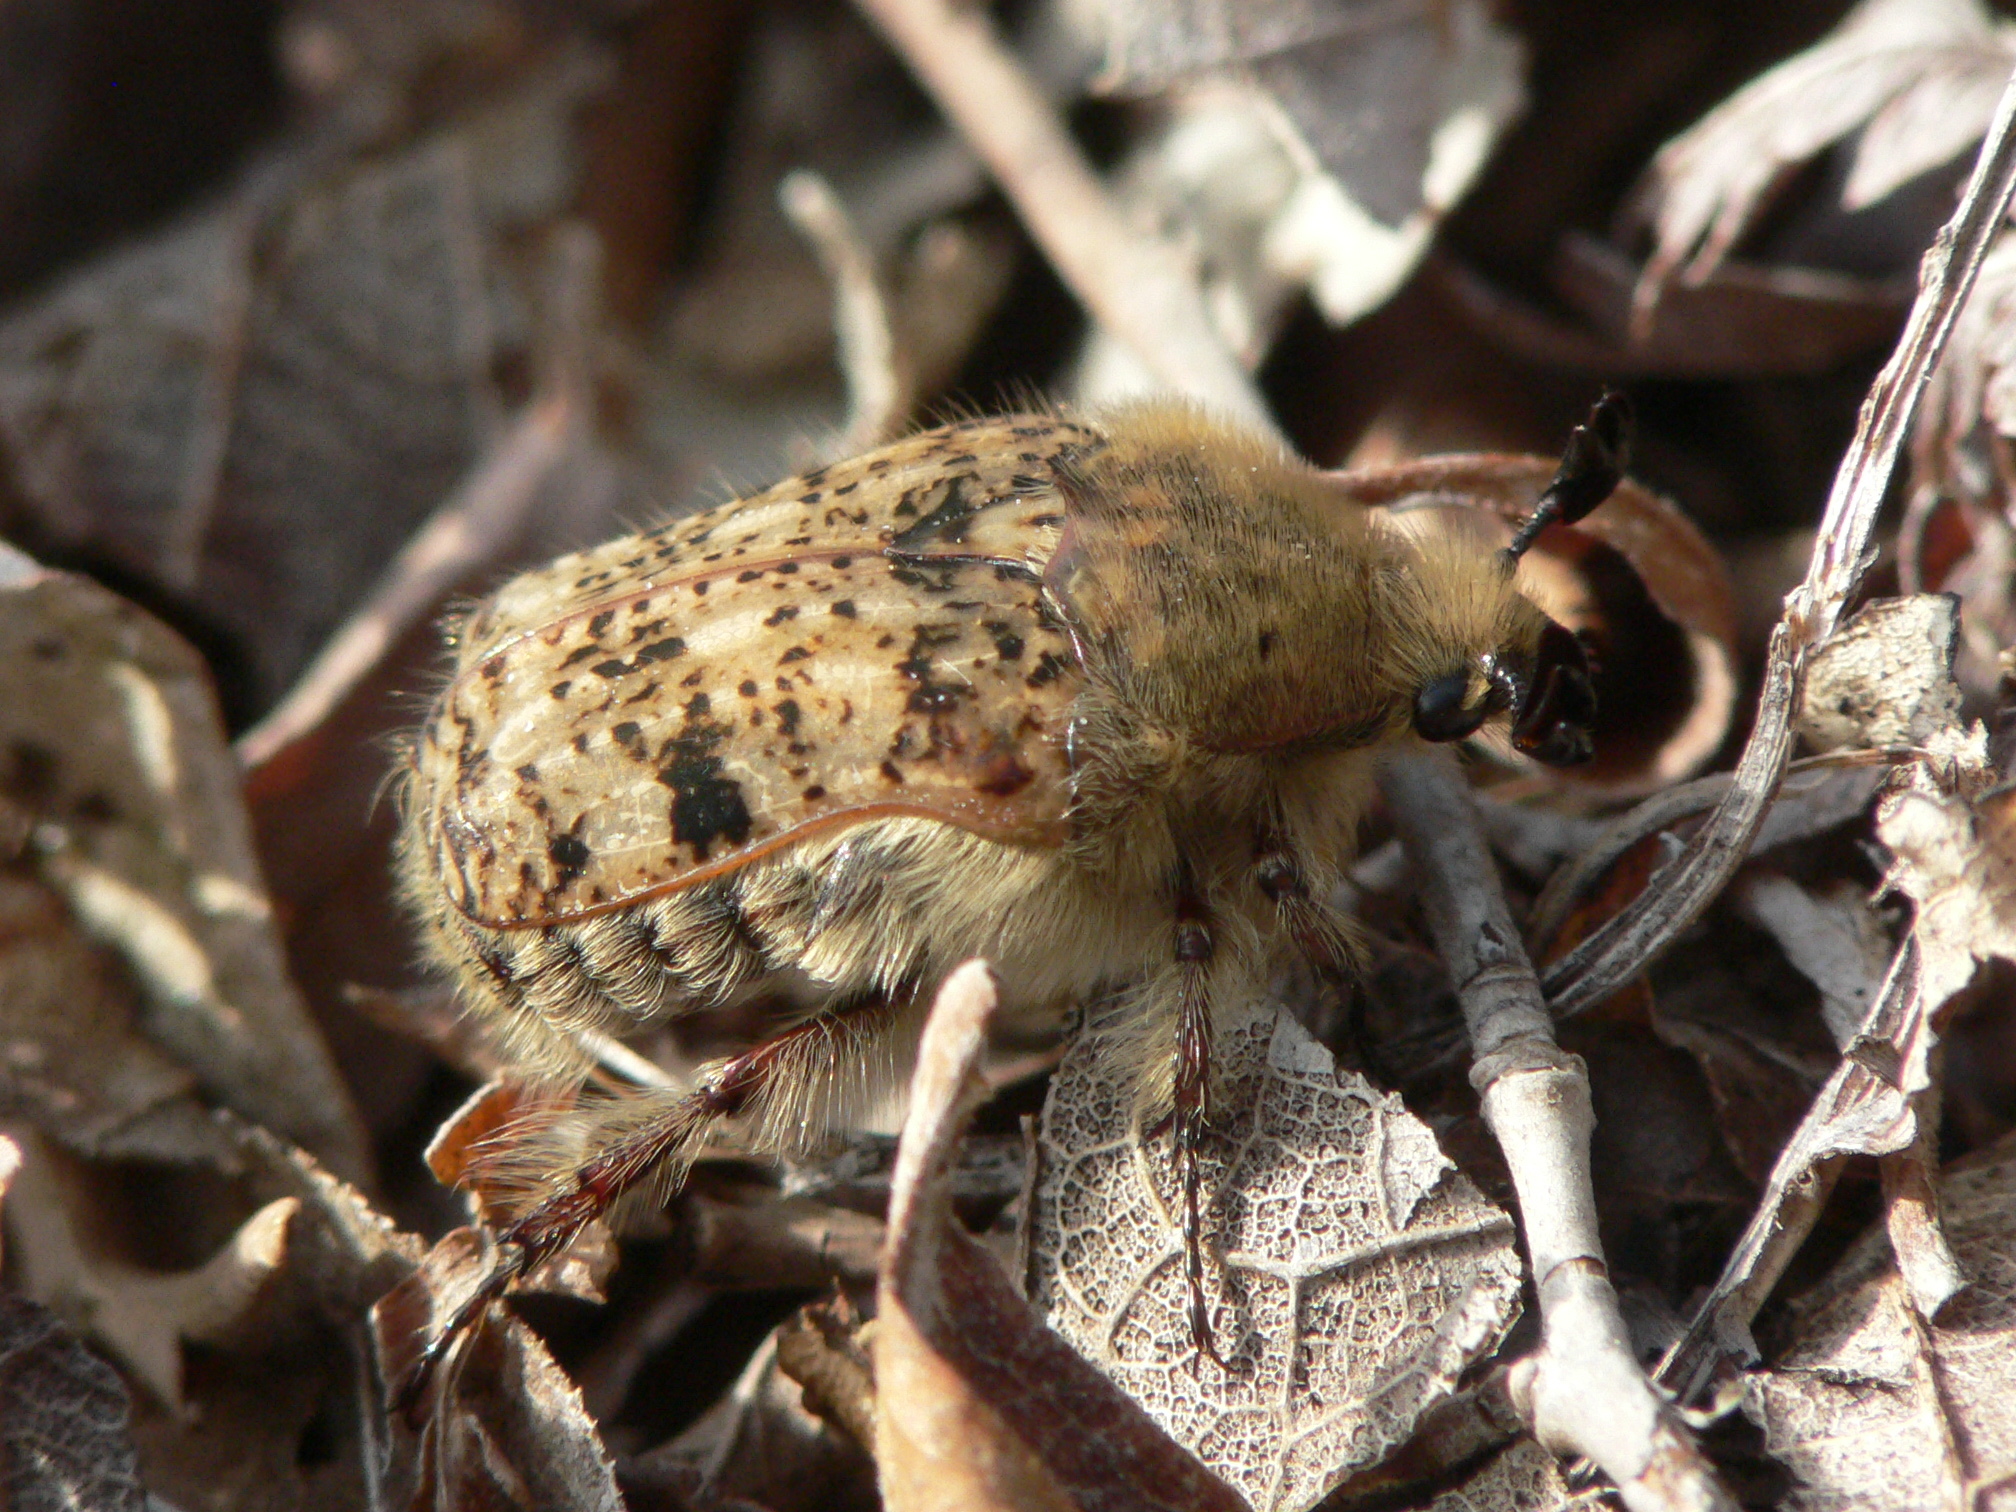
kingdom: Animalia
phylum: Arthropoda
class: Insecta
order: Coleoptera
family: Scarabaeidae
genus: Euphoria
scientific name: Euphoria inda
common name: Bumble flower beetle
